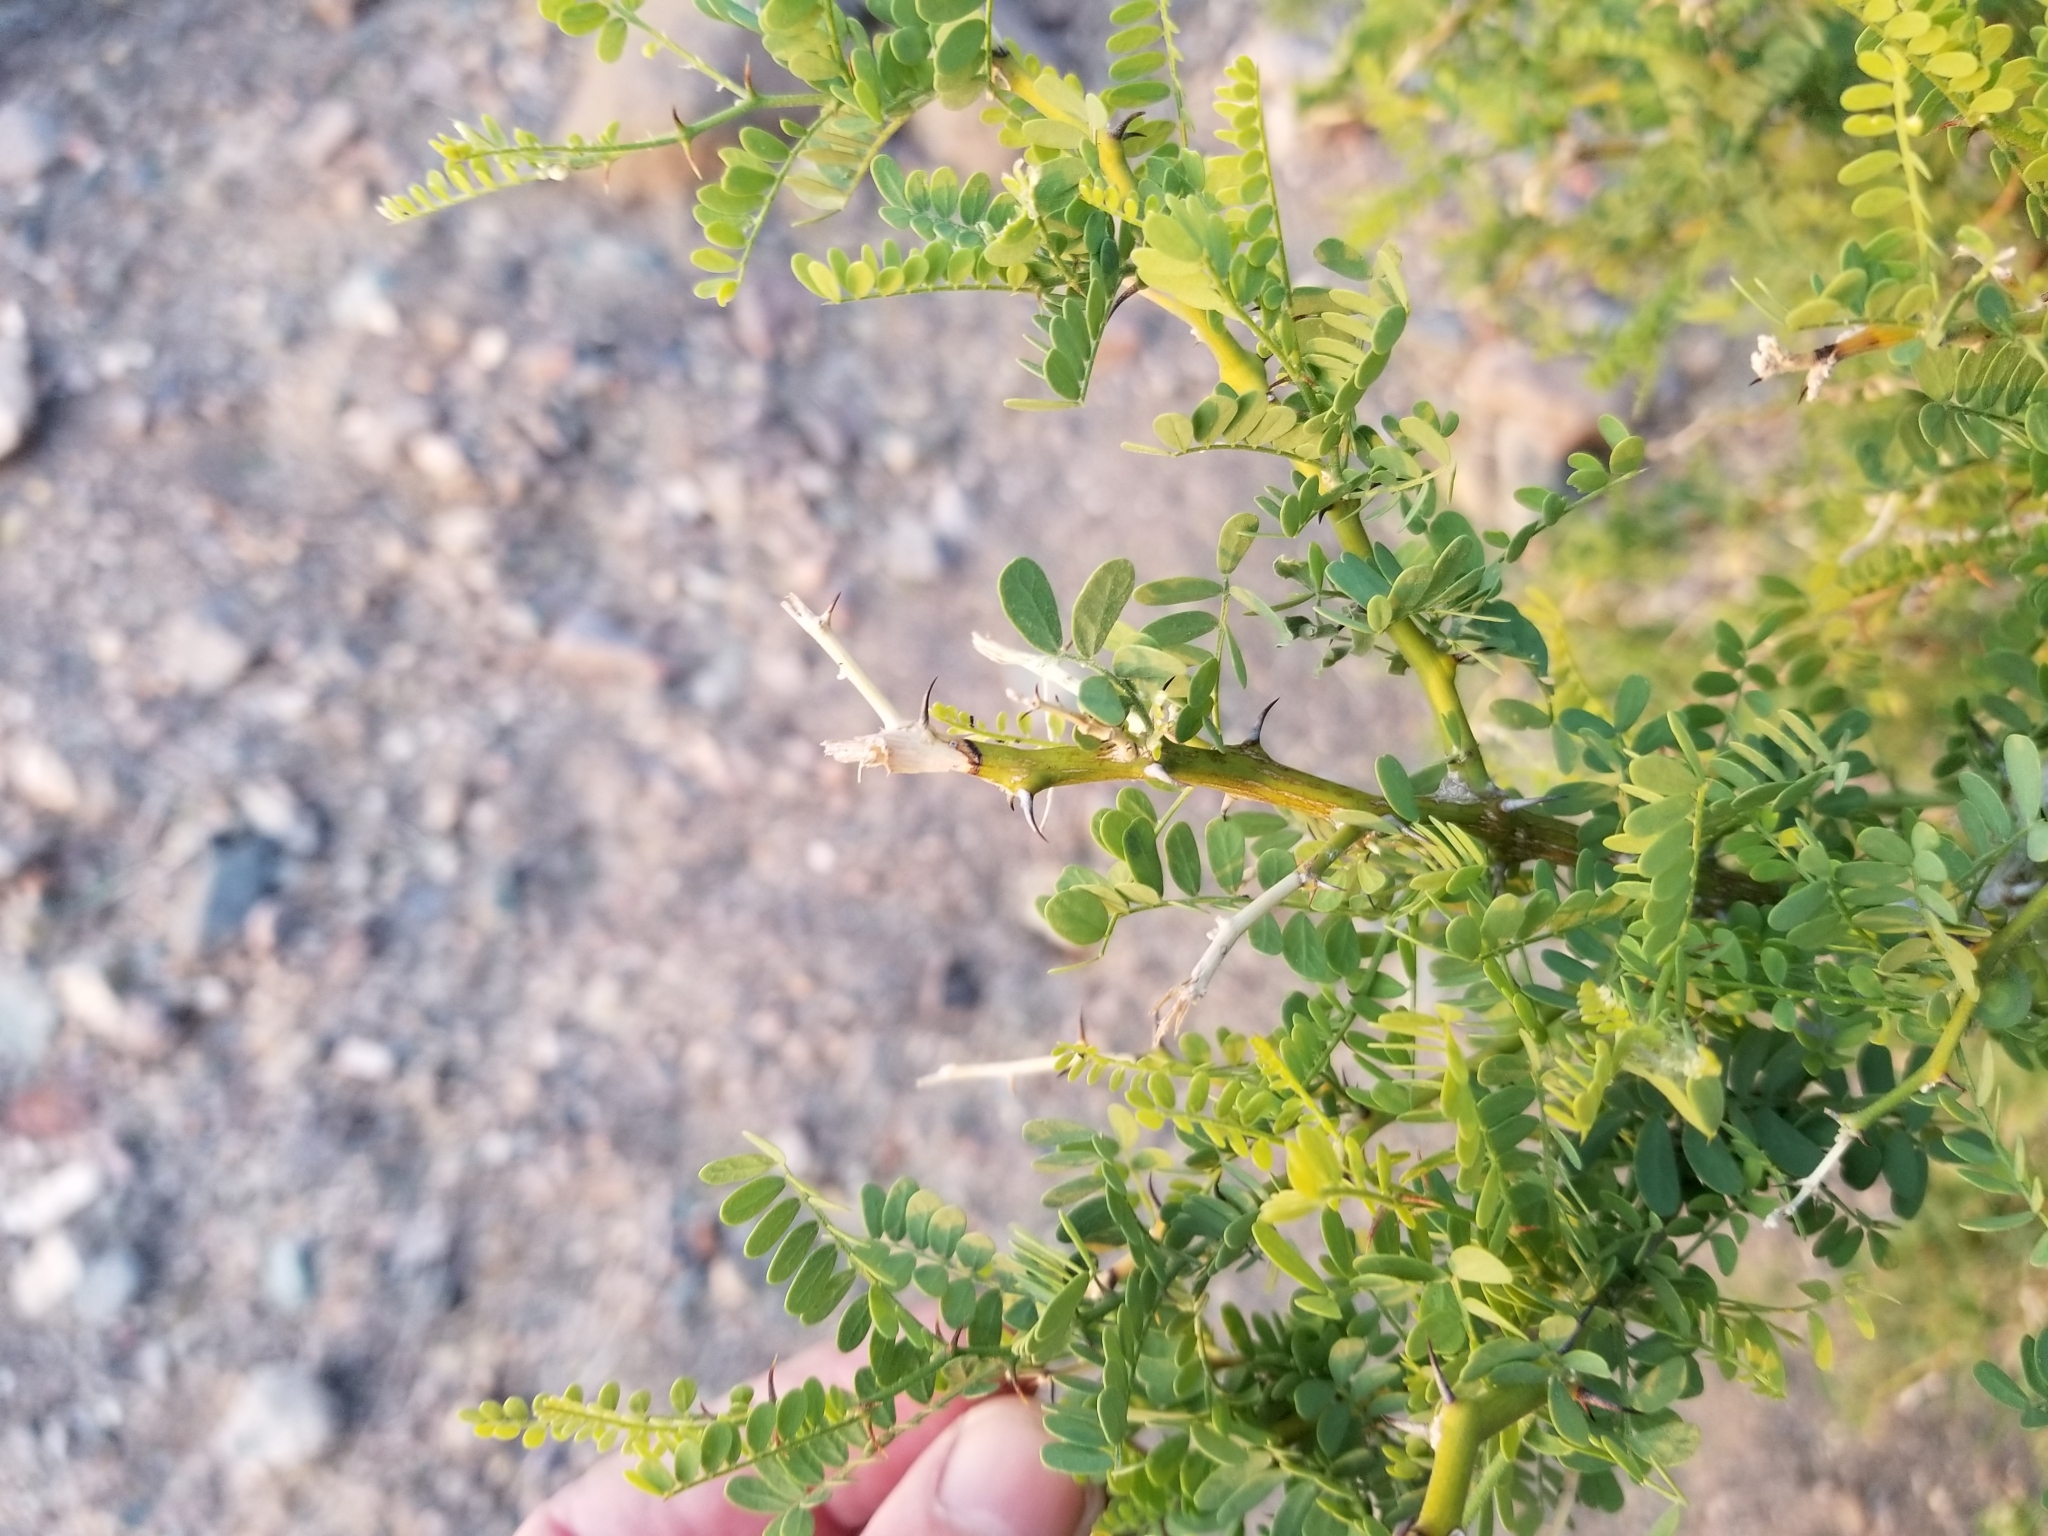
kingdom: Plantae
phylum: Tracheophyta
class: Magnoliopsida
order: Fabales
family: Fabaceae
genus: Olneya
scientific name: Olneya tesota
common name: Desert ironwood
